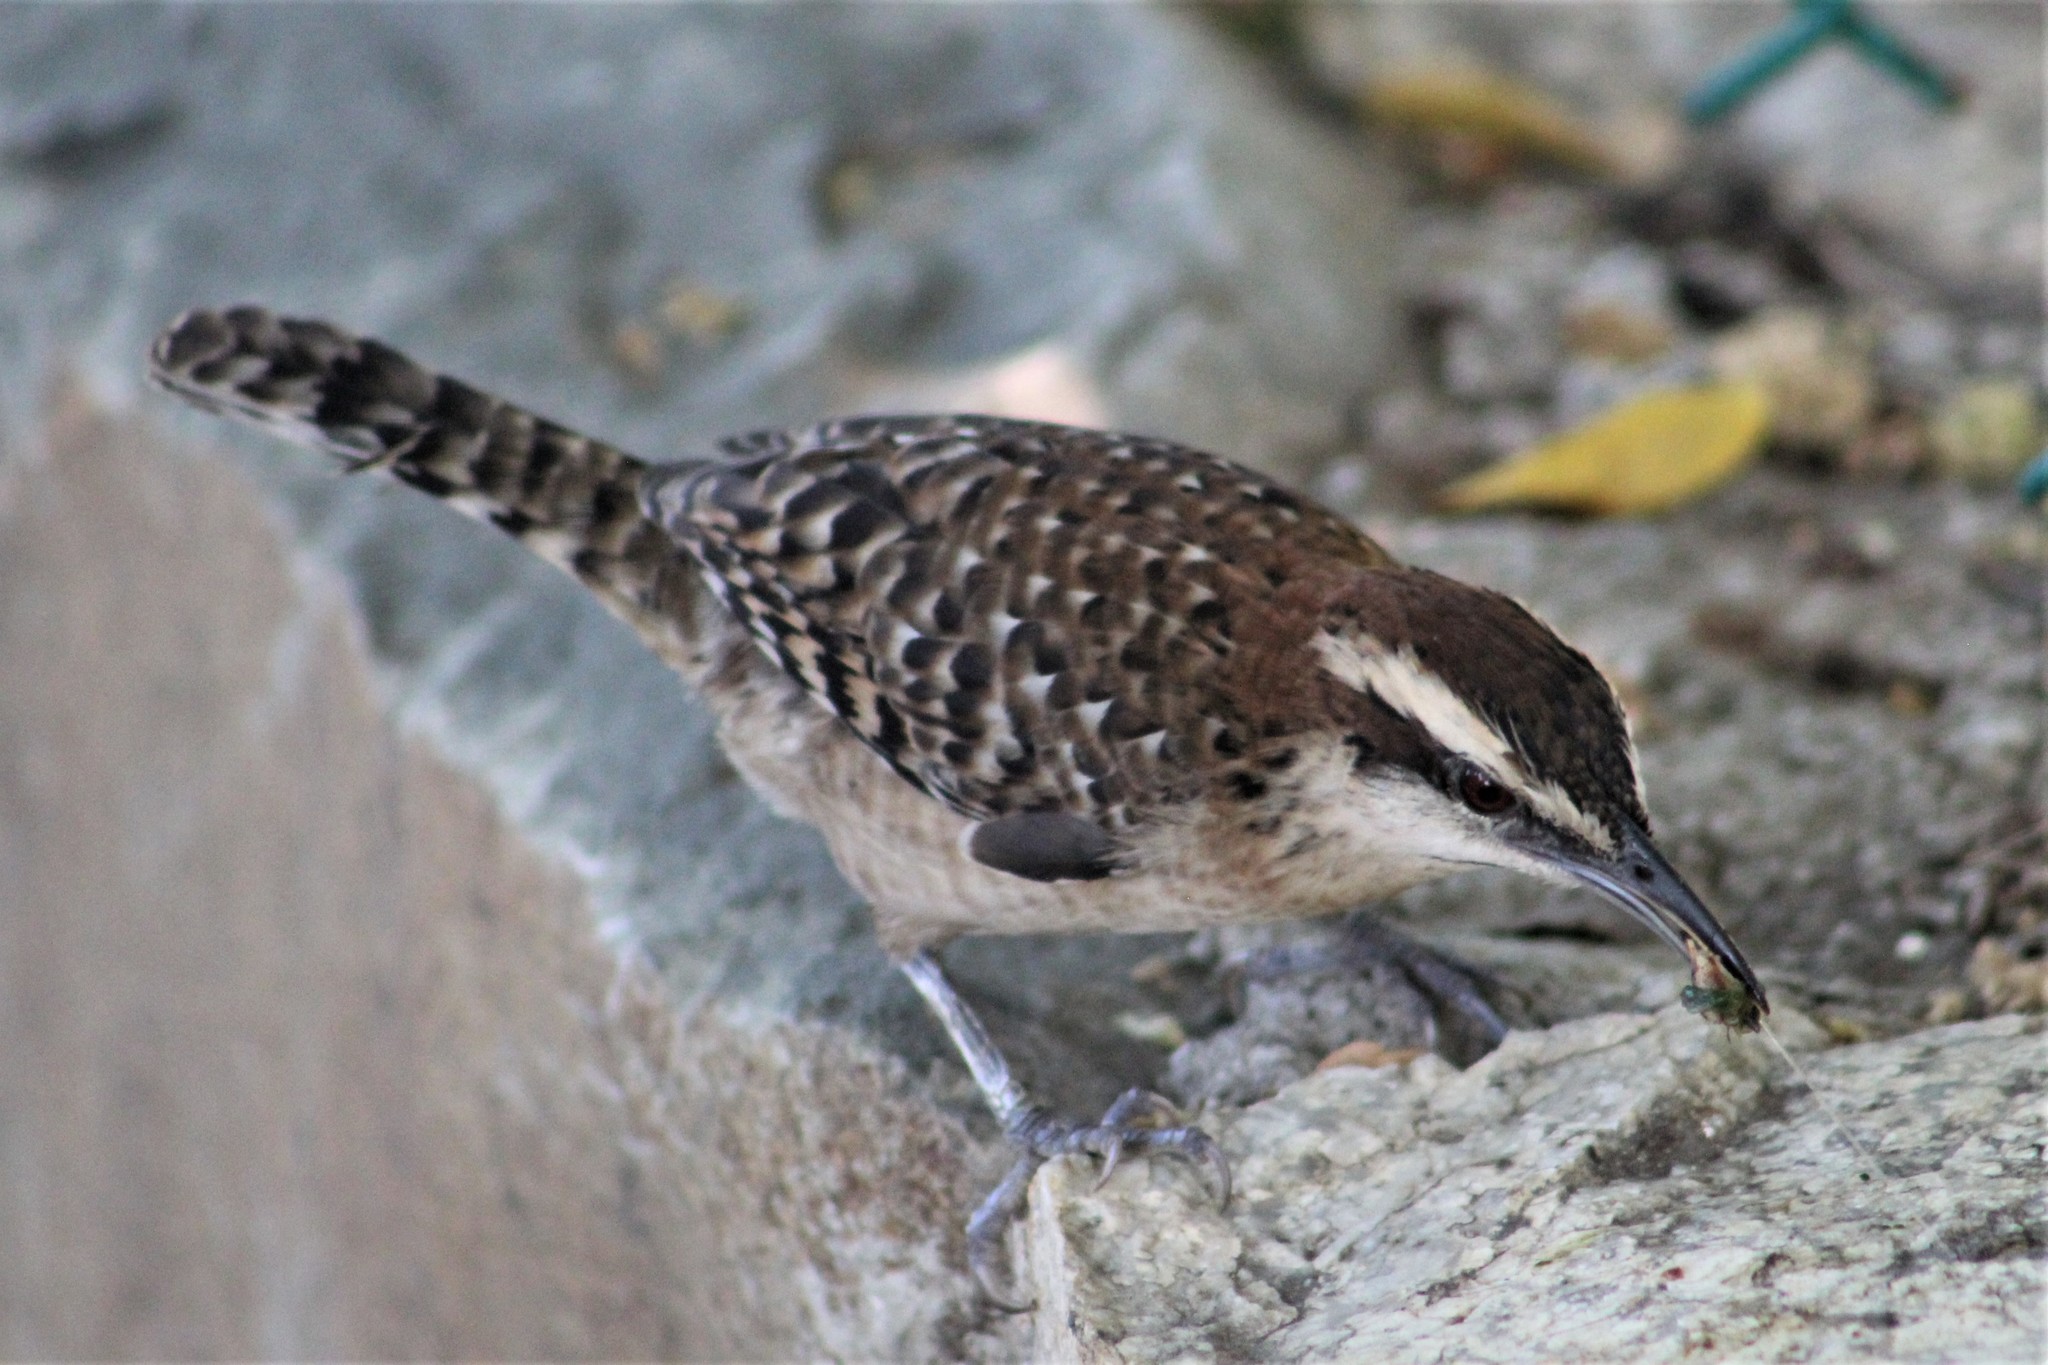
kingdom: Animalia
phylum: Chordata
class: Aves
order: Passeriformes
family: Troglodytidae
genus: Campylorhynchus
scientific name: Campylorhynchus rufinucha
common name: Rufous-naped wren
